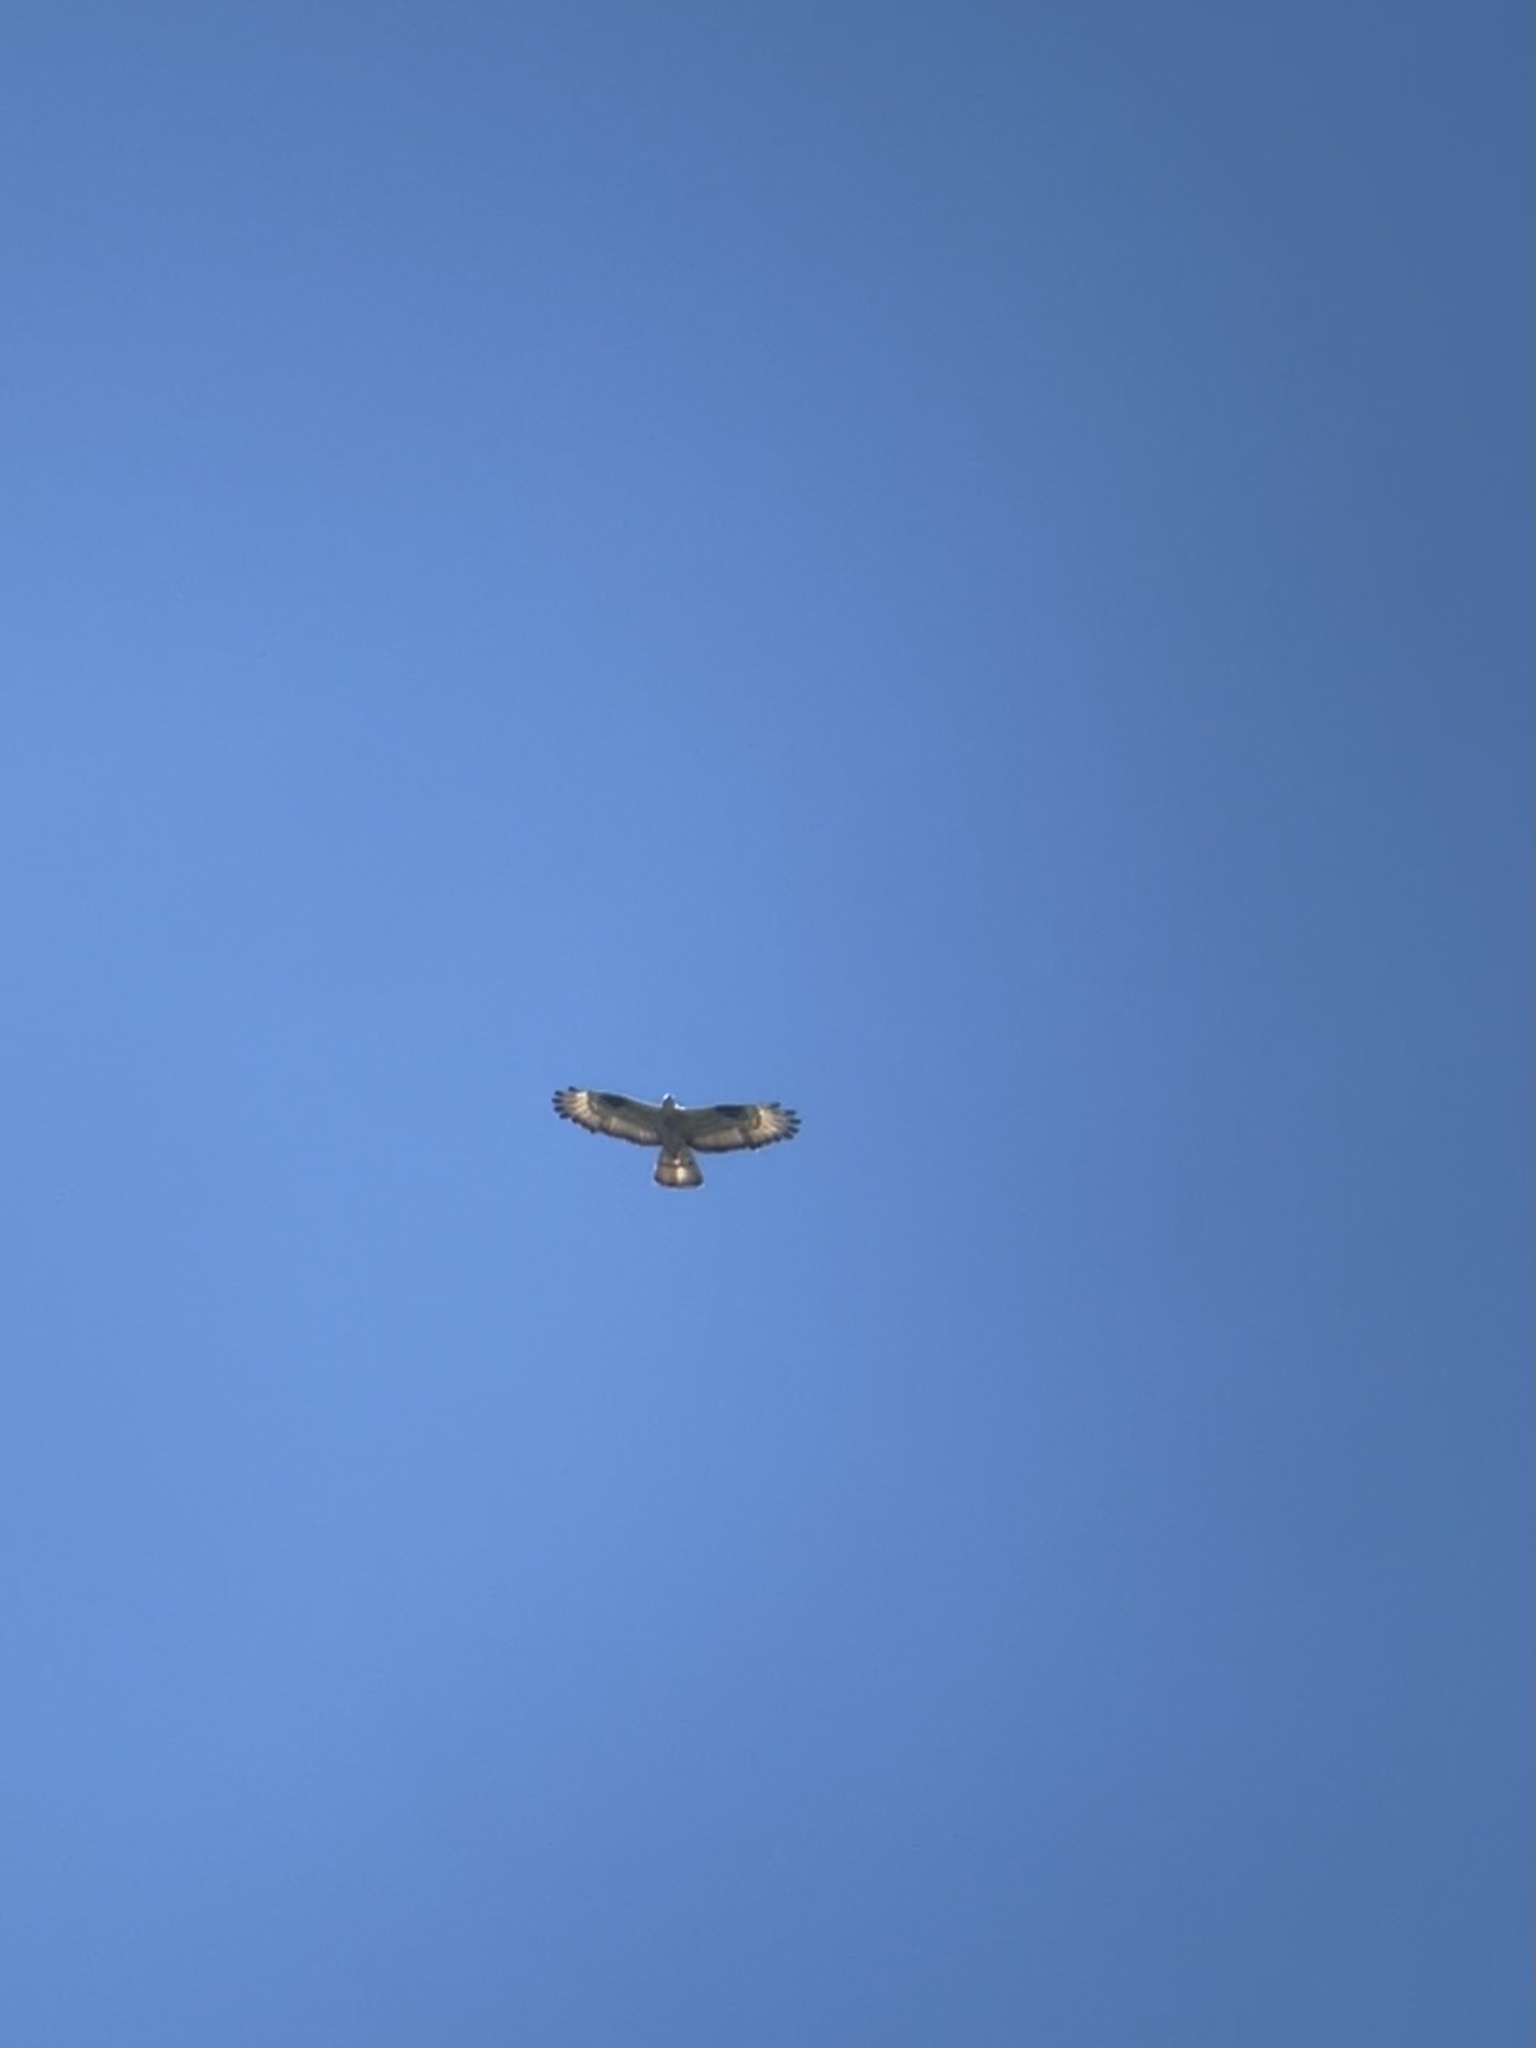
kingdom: Animalia
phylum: Chordata
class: Aves
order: Accipitriformes
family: Accipitridae
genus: Pernis
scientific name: Pernis apivorus
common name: European honey buzzard
